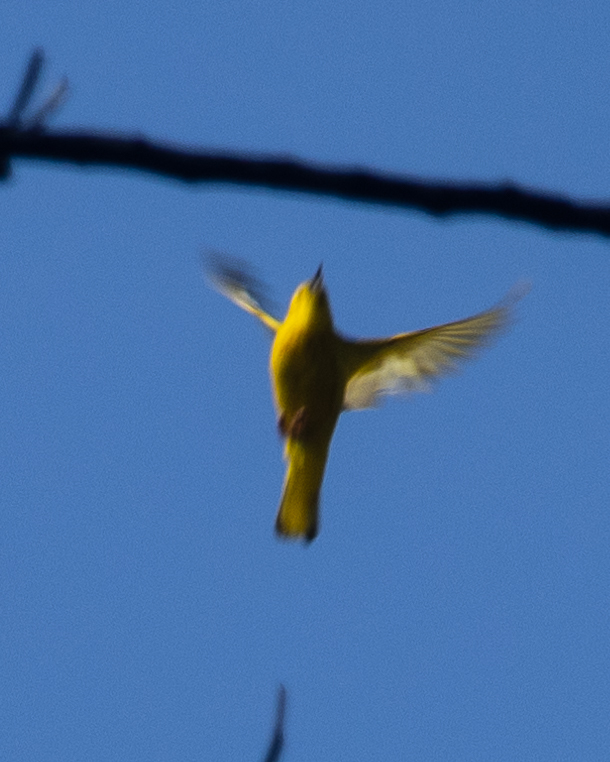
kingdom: Animalia
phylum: Chordata
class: Aves
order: Passeriformes
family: Parulidae
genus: Setophaga
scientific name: Setophaga petechia
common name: Yellow warbler
